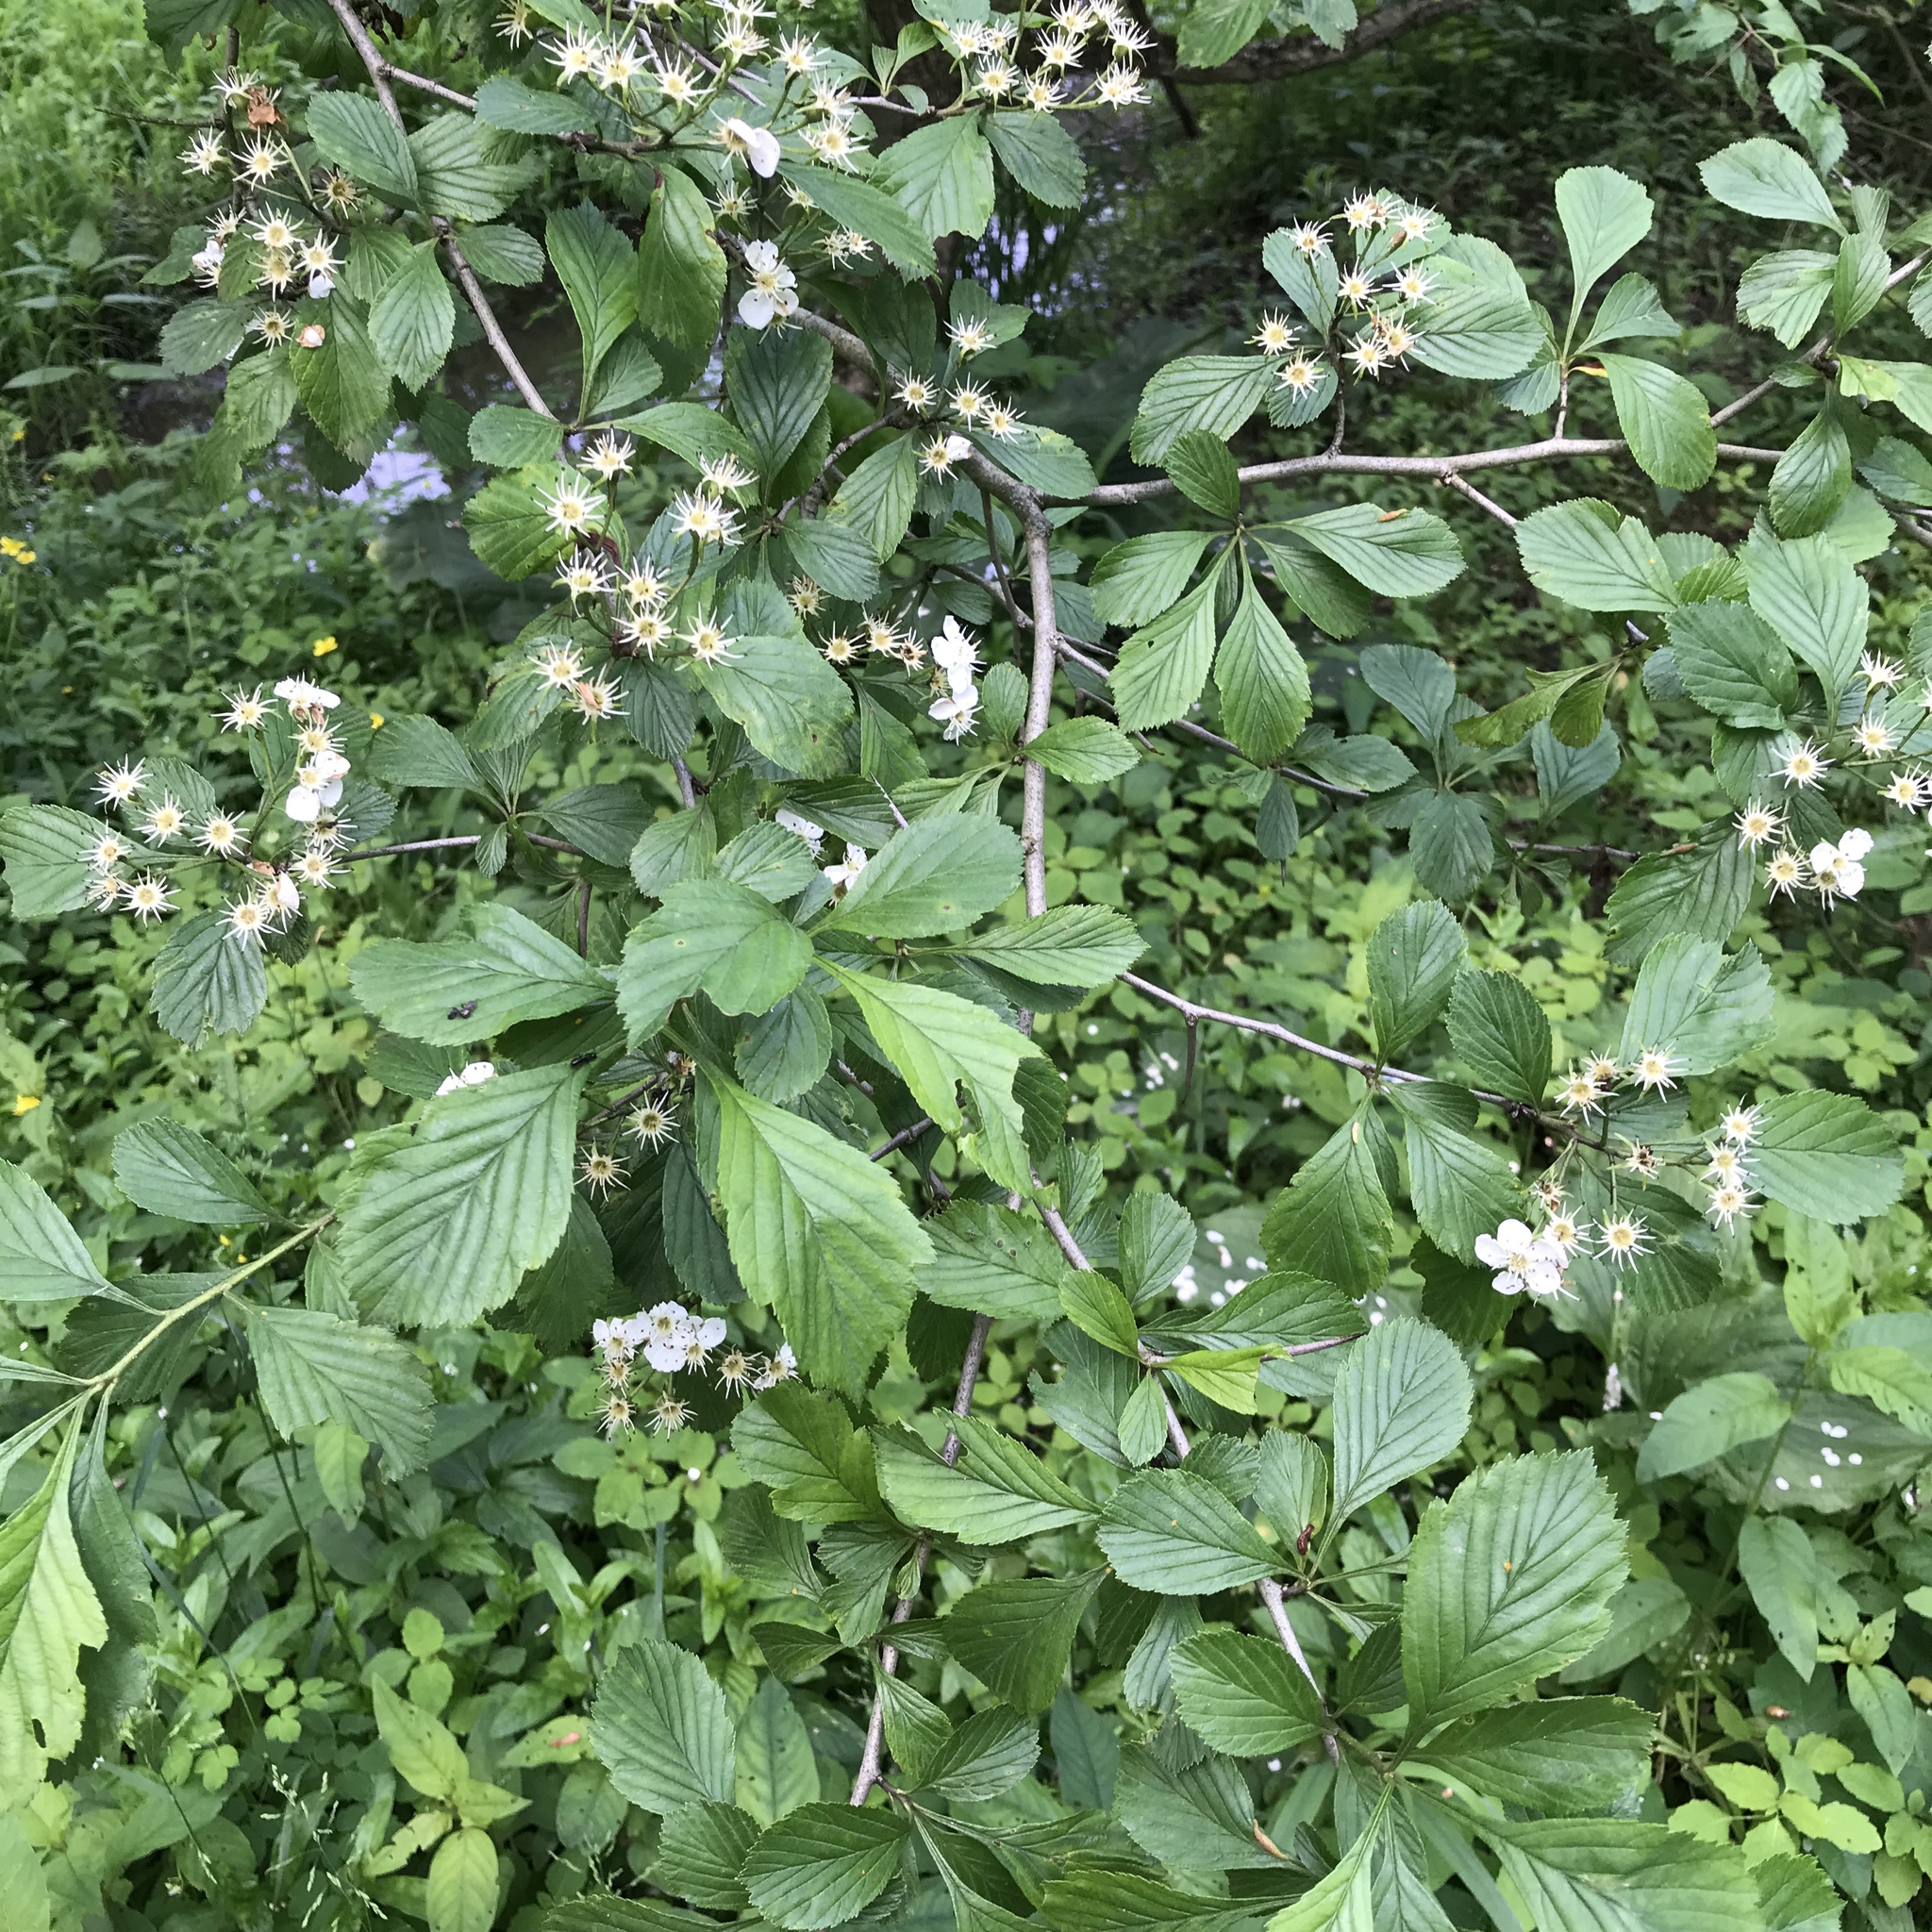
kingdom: Plantae
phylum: Tracheophyta
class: Magnoliopsida
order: Rosales
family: Rosaceae
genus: Crataegus
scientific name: Crataegus punctata
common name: Dotted hawthorn
